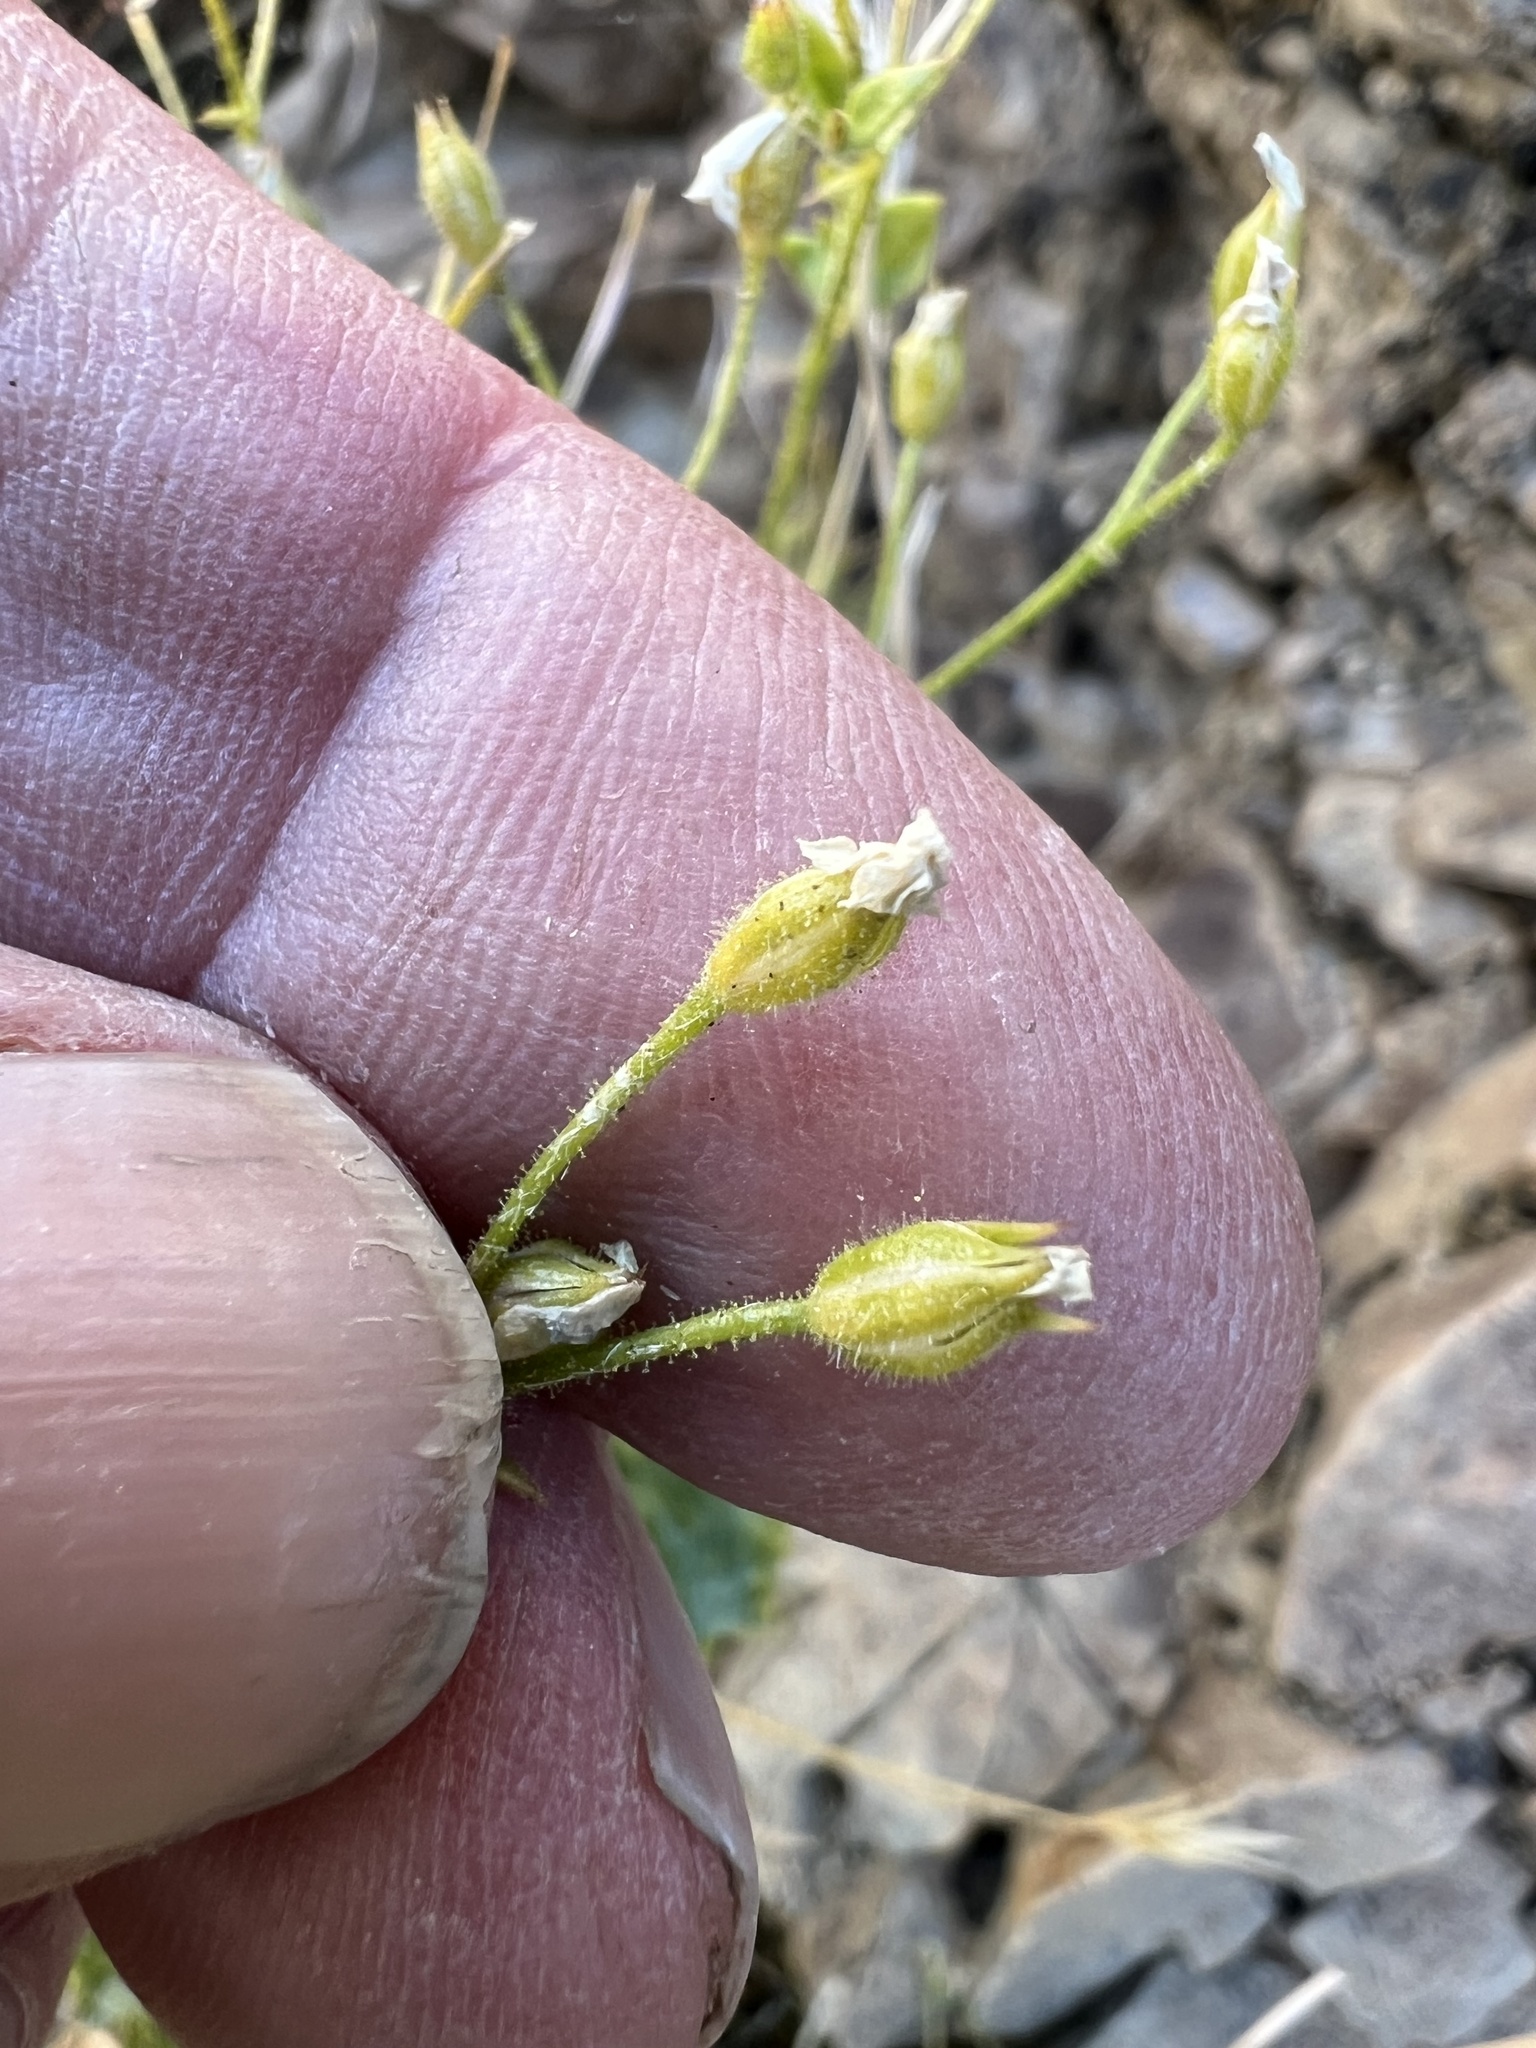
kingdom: Plantae
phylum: Tracheophyta
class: Magnoliopsida
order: Ericales
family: Polemoniaceae
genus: Aliciella
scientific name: Aliciella latifolia
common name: Broad-leaf gilia
